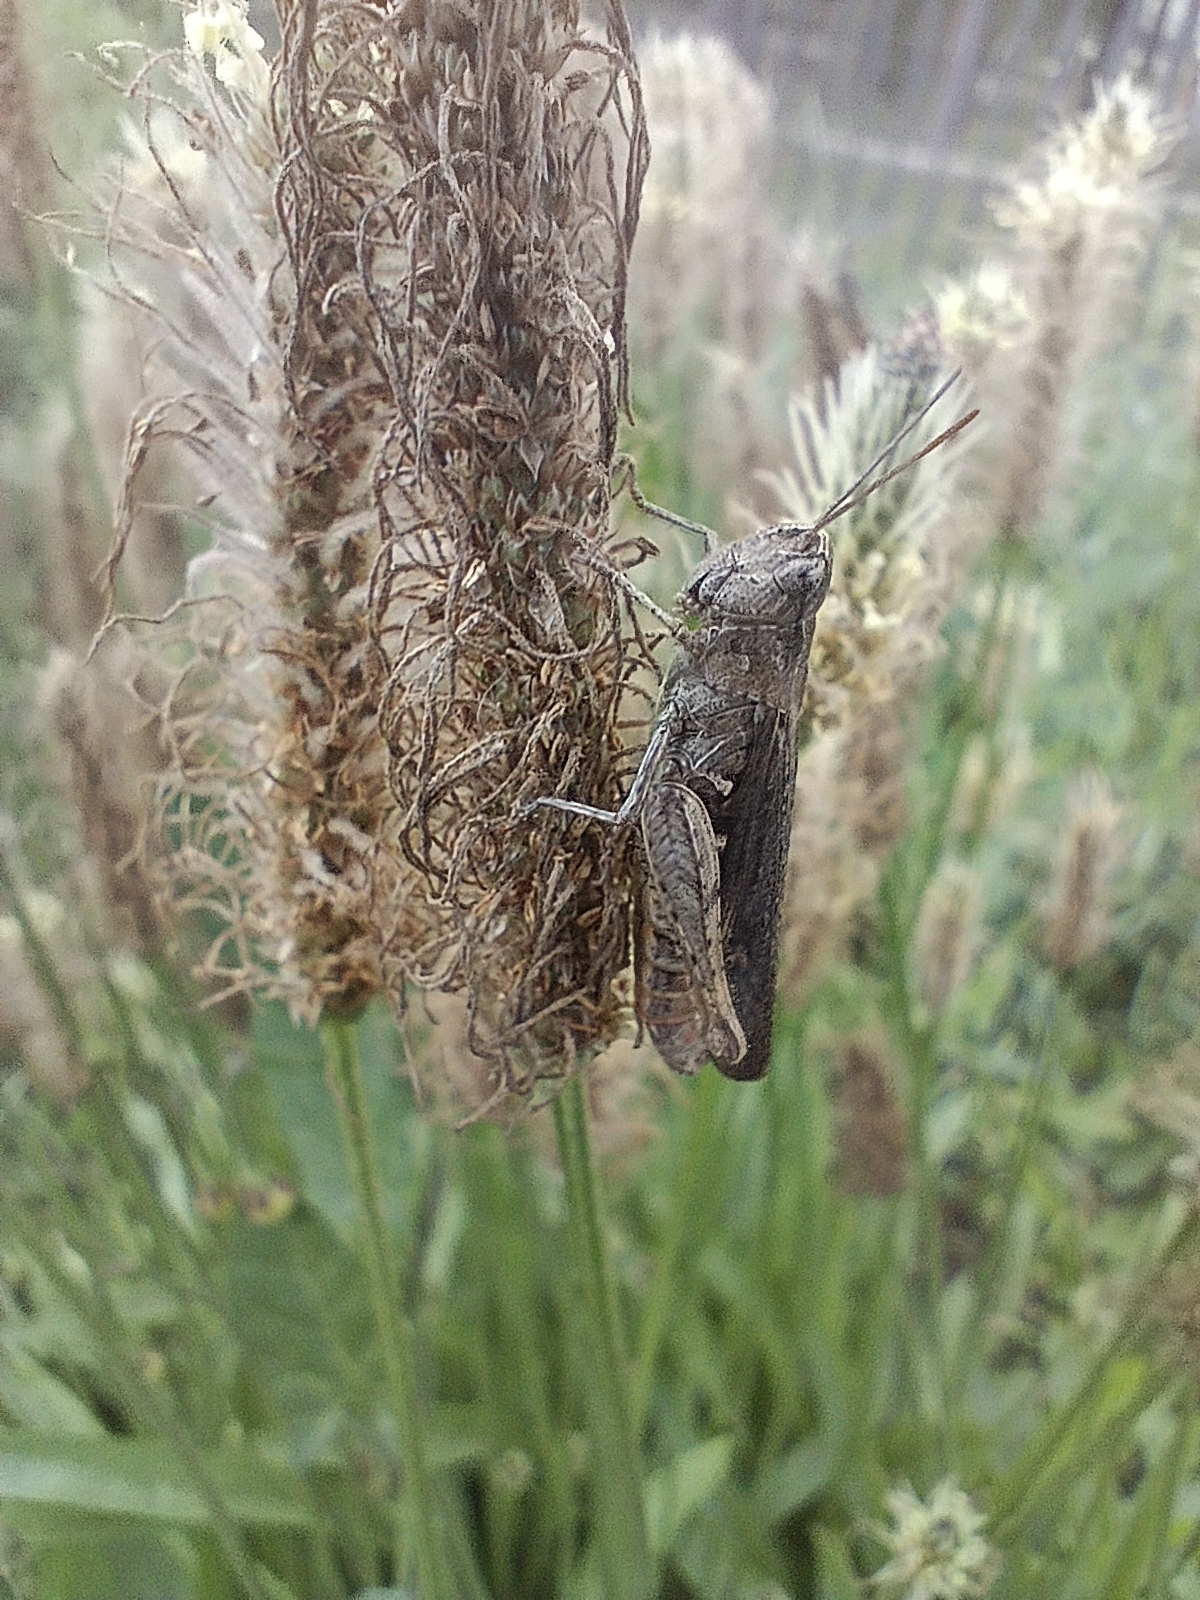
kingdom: Animalia
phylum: Arthropoda
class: Insecta
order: Orthoptera
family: Acrididae
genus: Chorthippus
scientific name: Chorthippus biguttulus
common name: Bow-winged grasshopper
